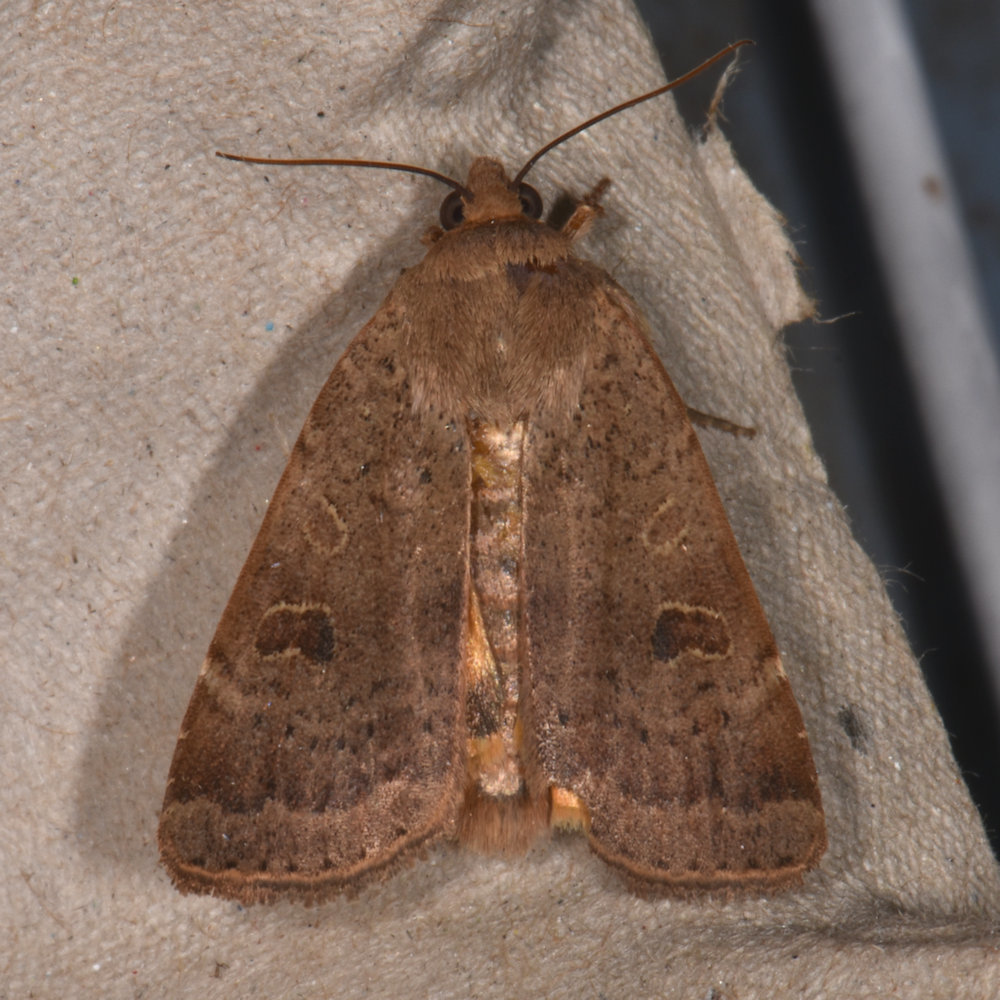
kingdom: Animalia
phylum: Arthropoda
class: Insecta
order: Lepidoptera
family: Noctuidae
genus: Noctua
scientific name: Noctua comes
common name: Lesser yellow underwing
